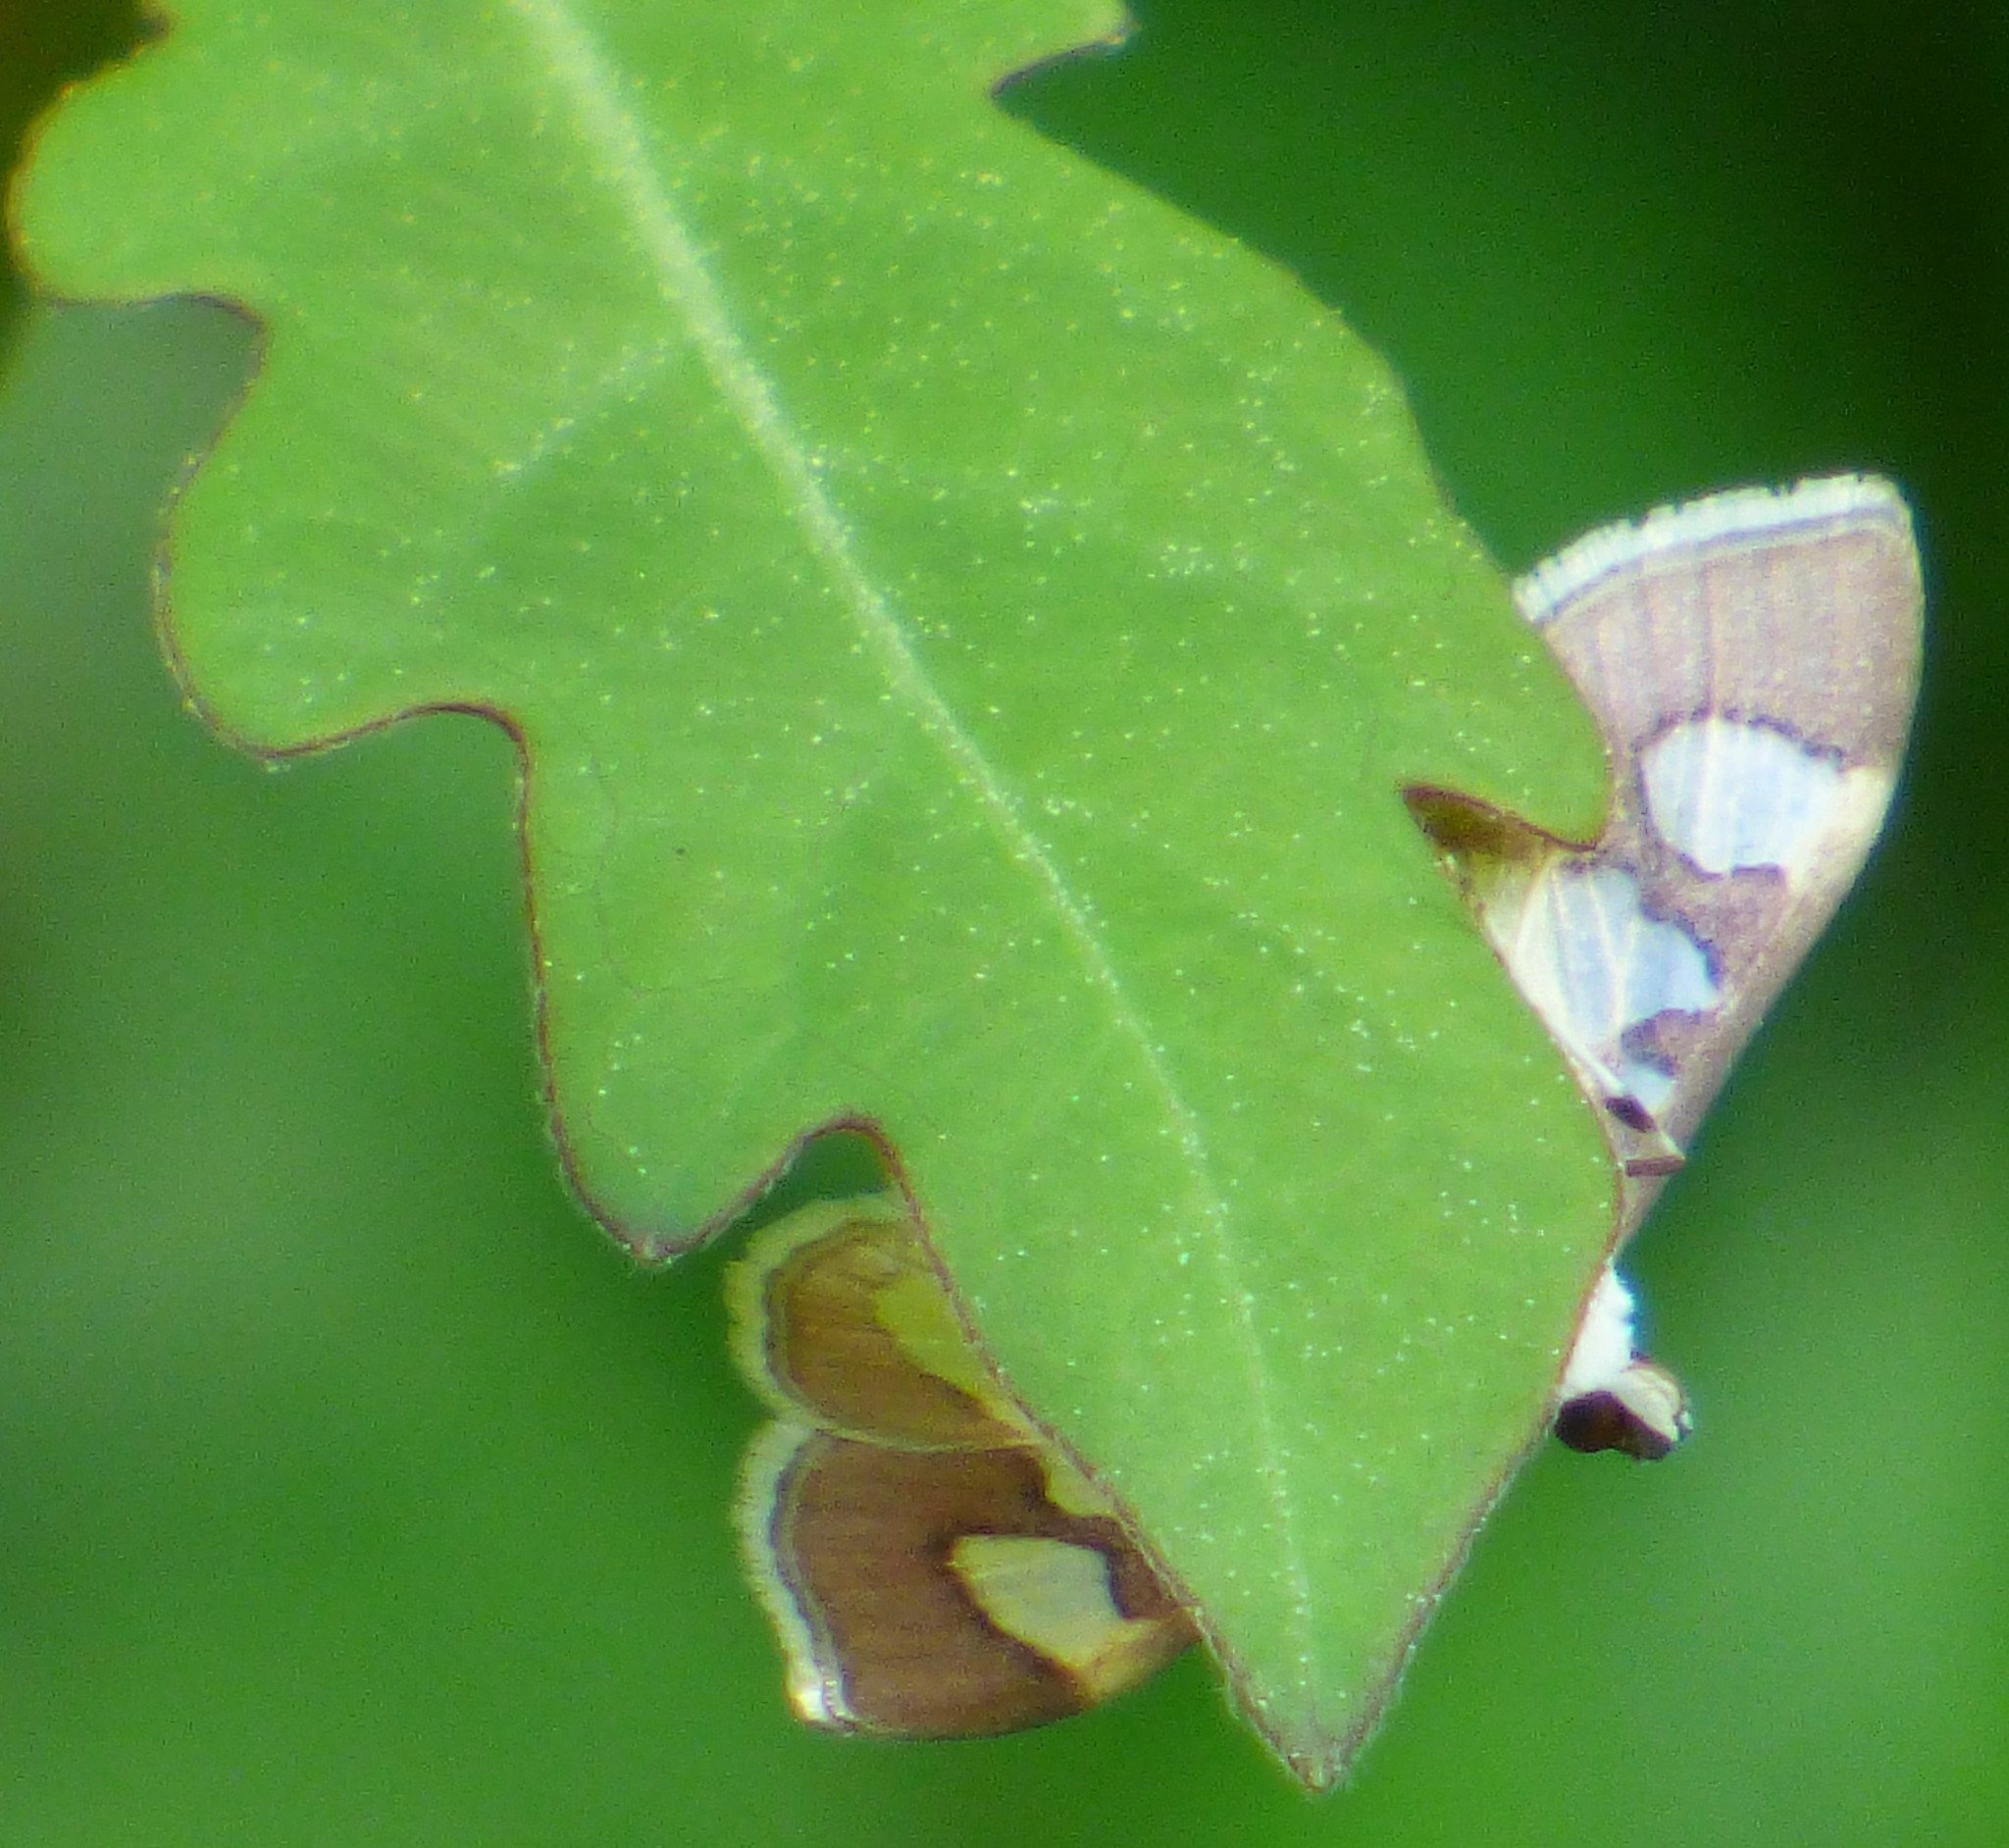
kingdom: Animalia
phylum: Arthropoda
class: Insecta
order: Lepidoptera
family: Crambidae
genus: Colomychus
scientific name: Colomychus talis
